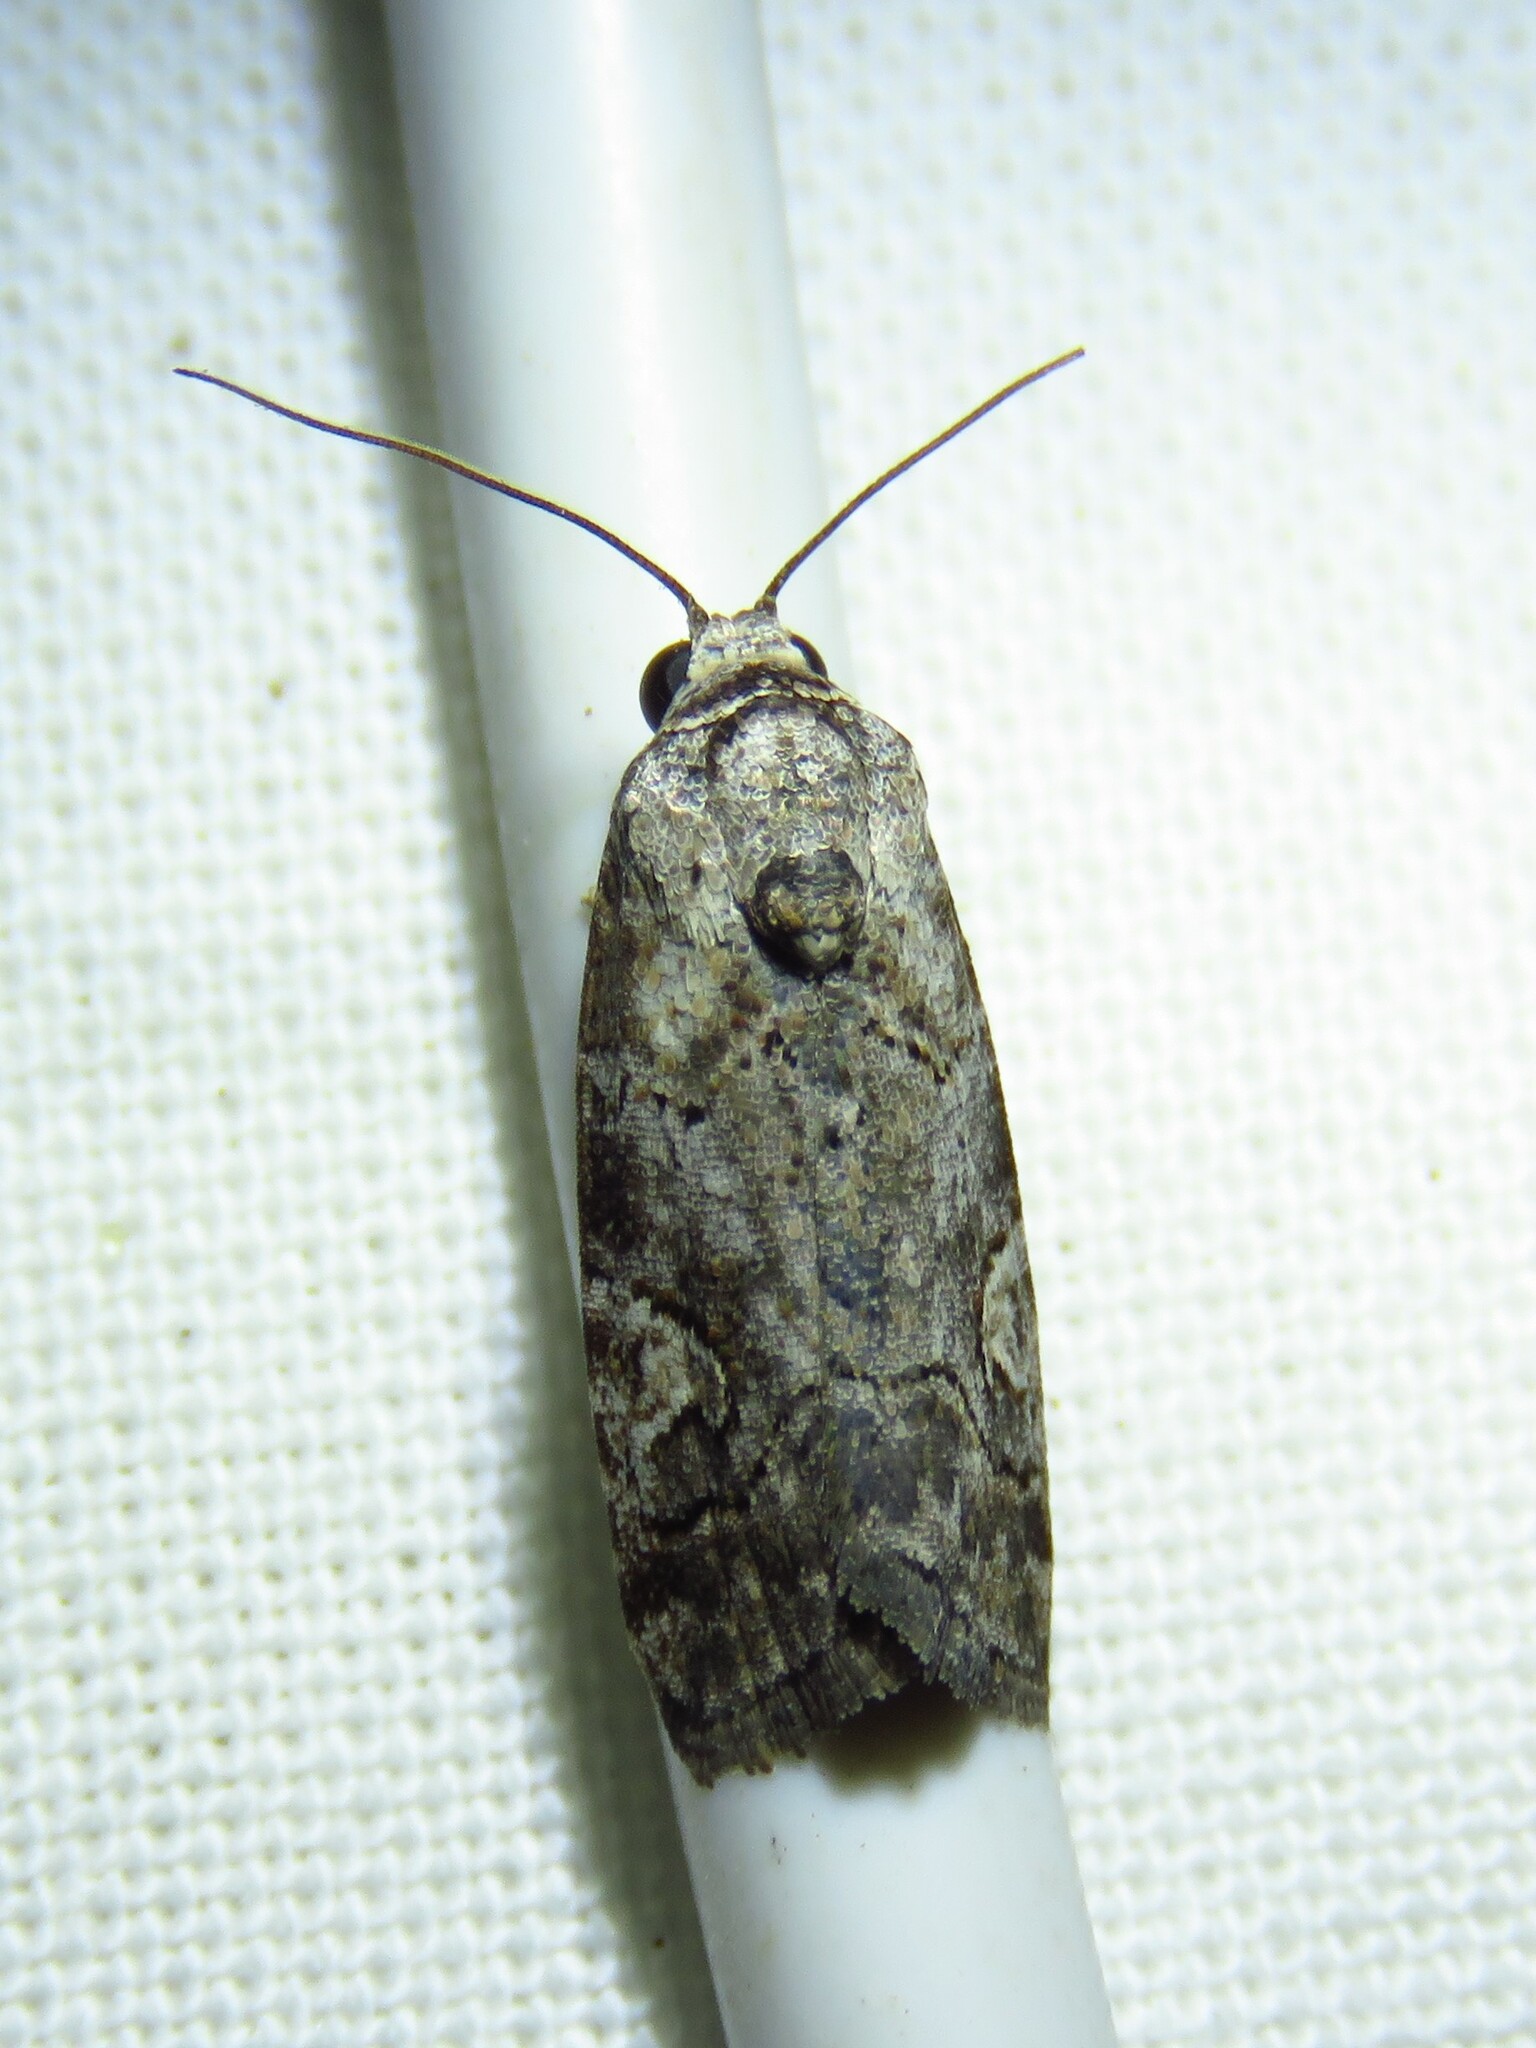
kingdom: Animalia
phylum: Arthropoda
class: Insecta
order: Lepidoptera
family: Noctuidae
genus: Metaponpneumata
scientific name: Metaponpneumata rogenhoferi
